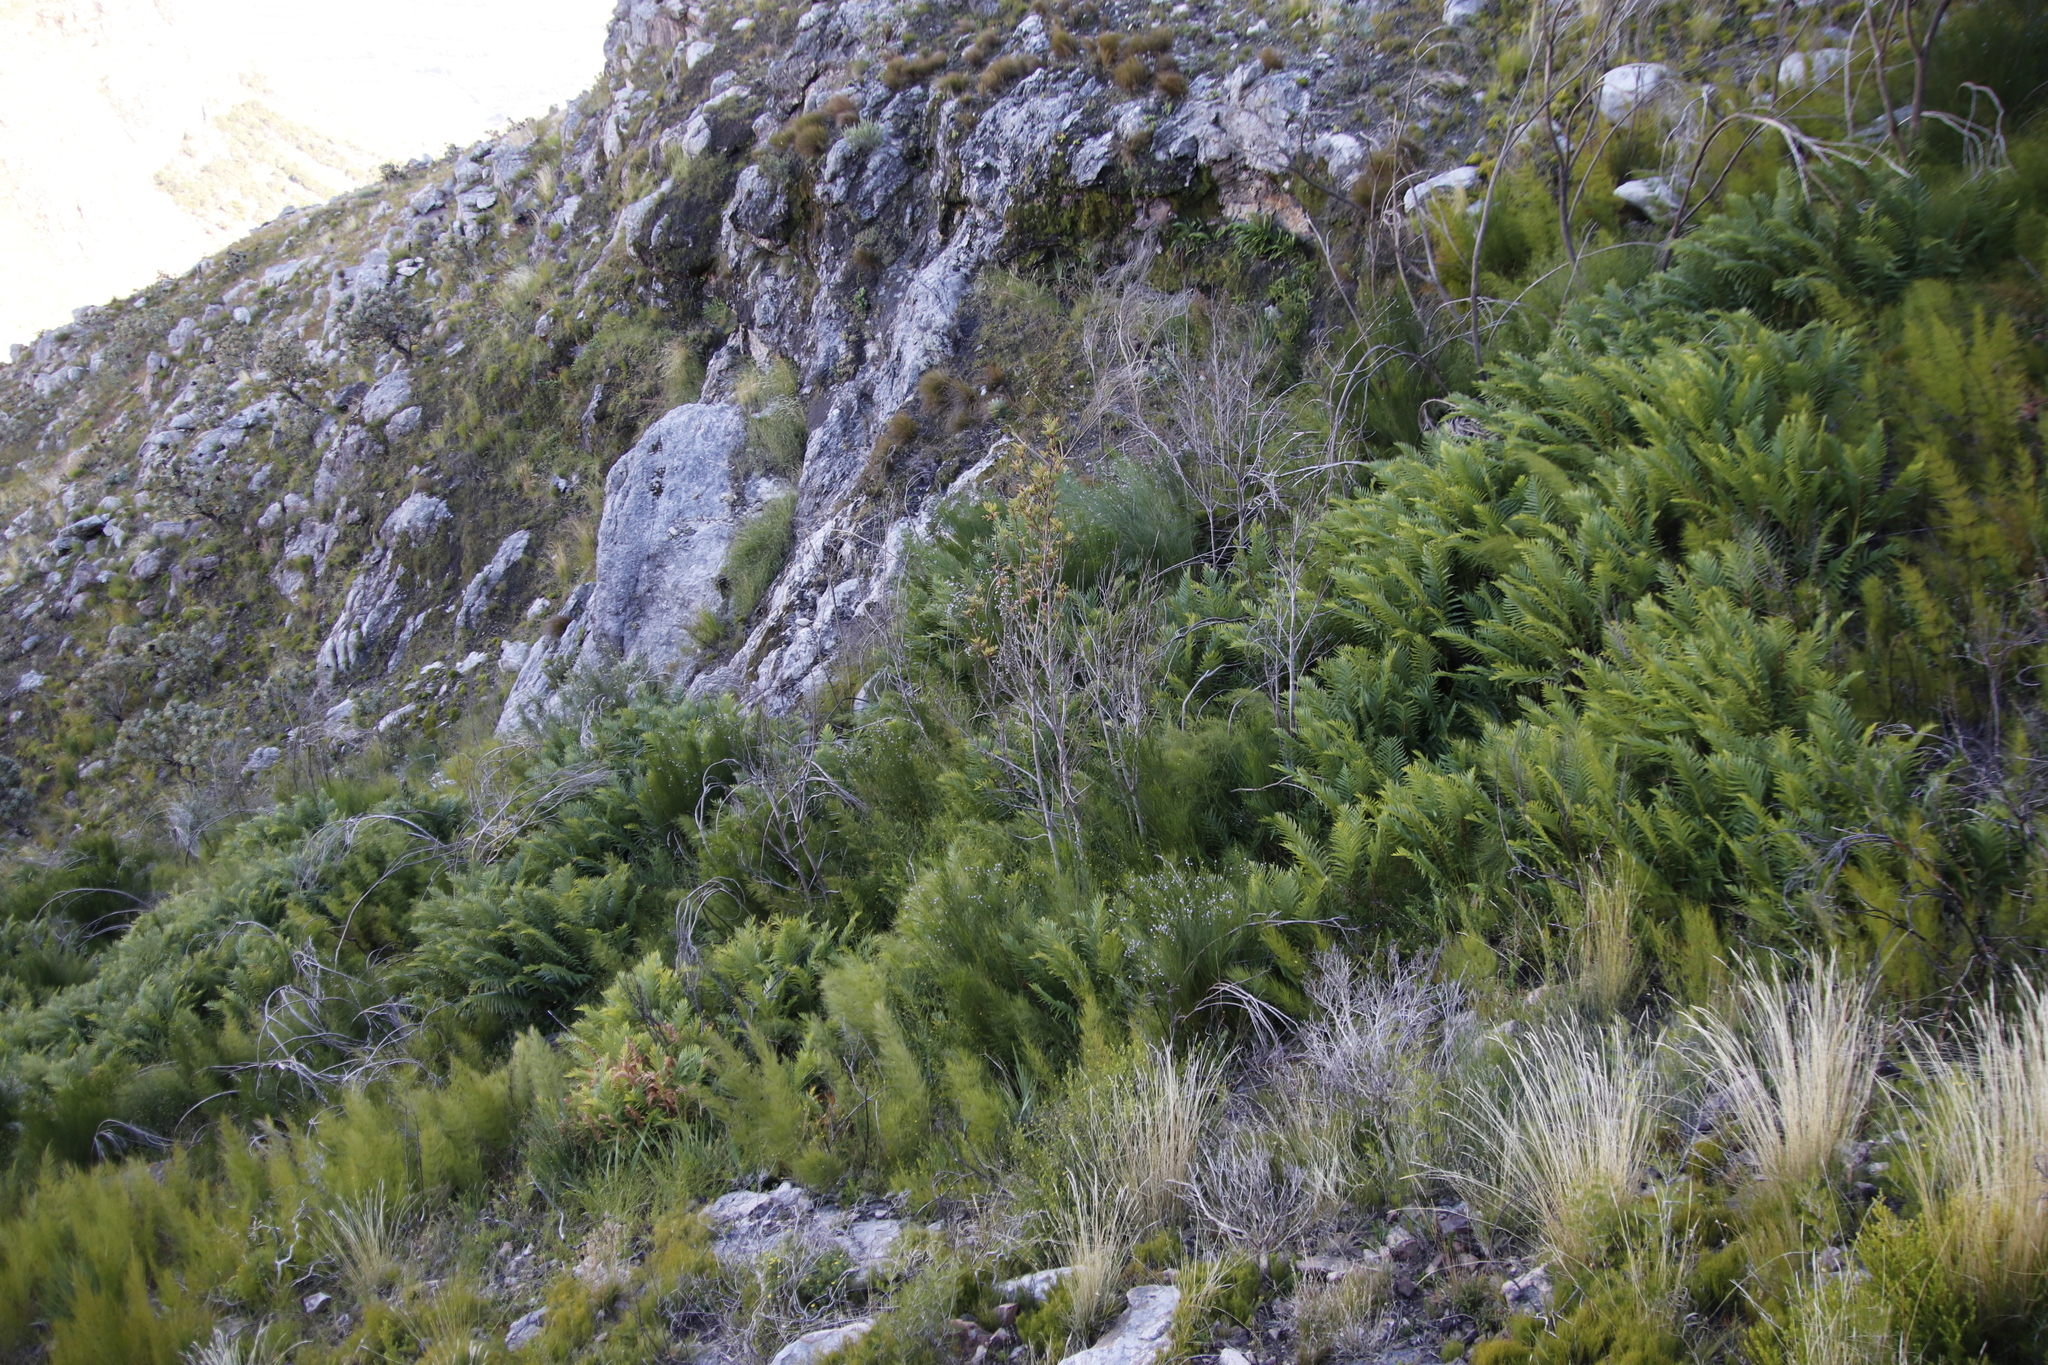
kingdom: Plantae
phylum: Tracheophyta
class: Magnoliopsida
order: Oxalidales
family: Cunoniaceae
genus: Cunonia
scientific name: Cunonia capensis
